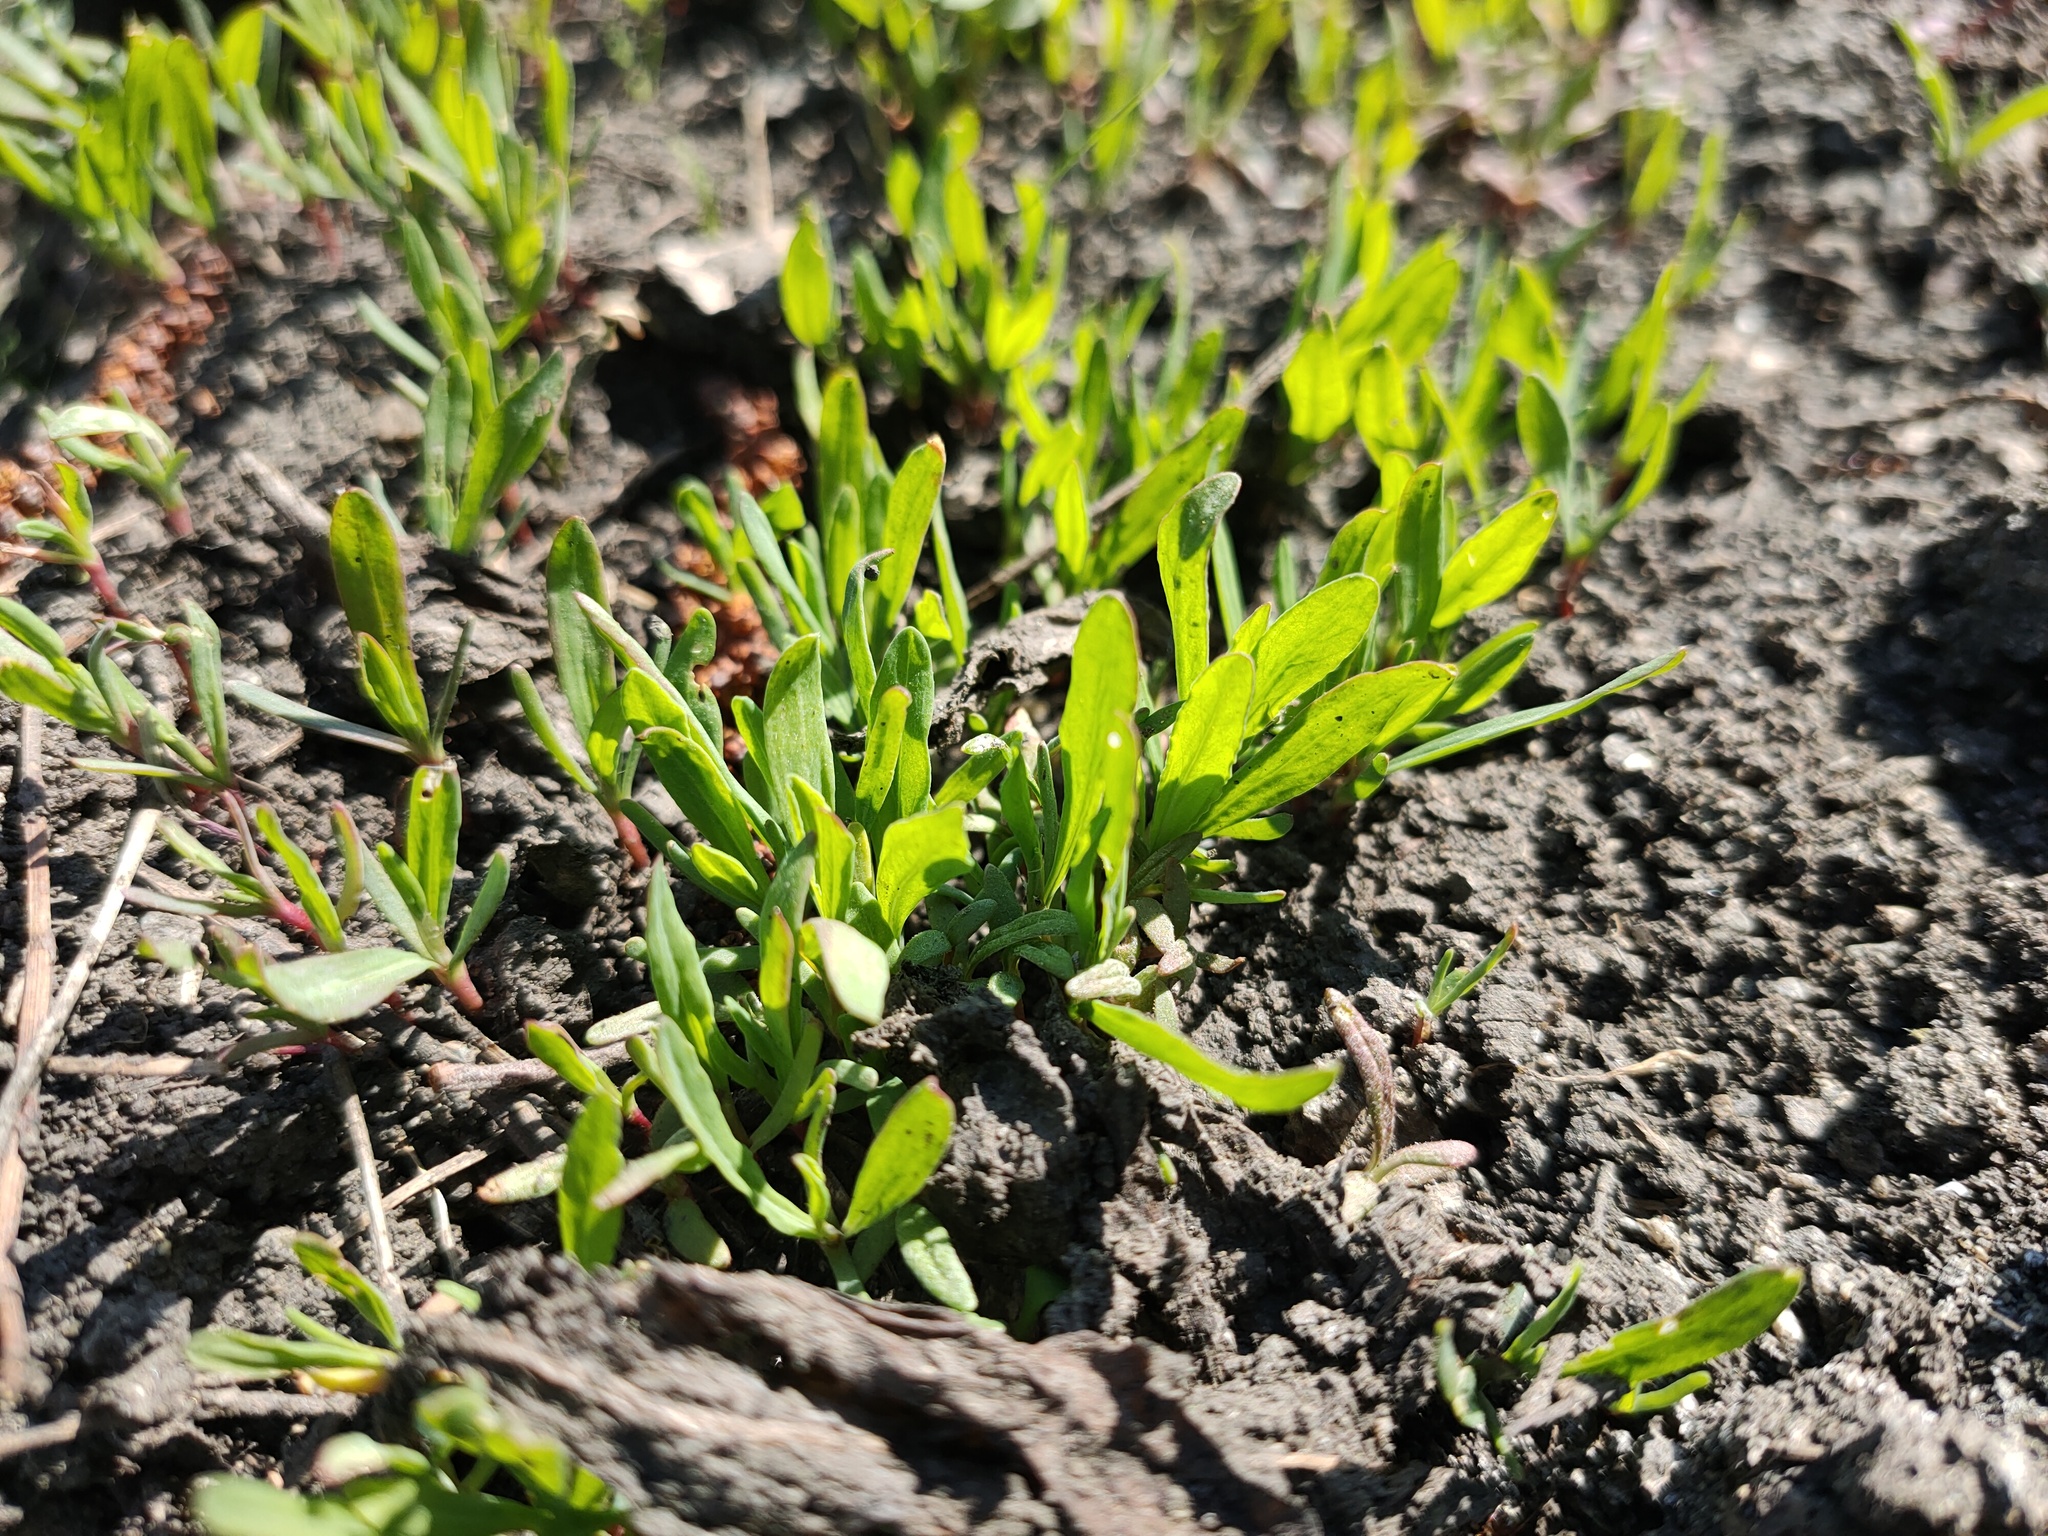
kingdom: Plantae
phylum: Tracheophyta
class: Magnoliopsida
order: Caryophyllales
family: Polygonaceae
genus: Polygonum
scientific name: Polygonum
